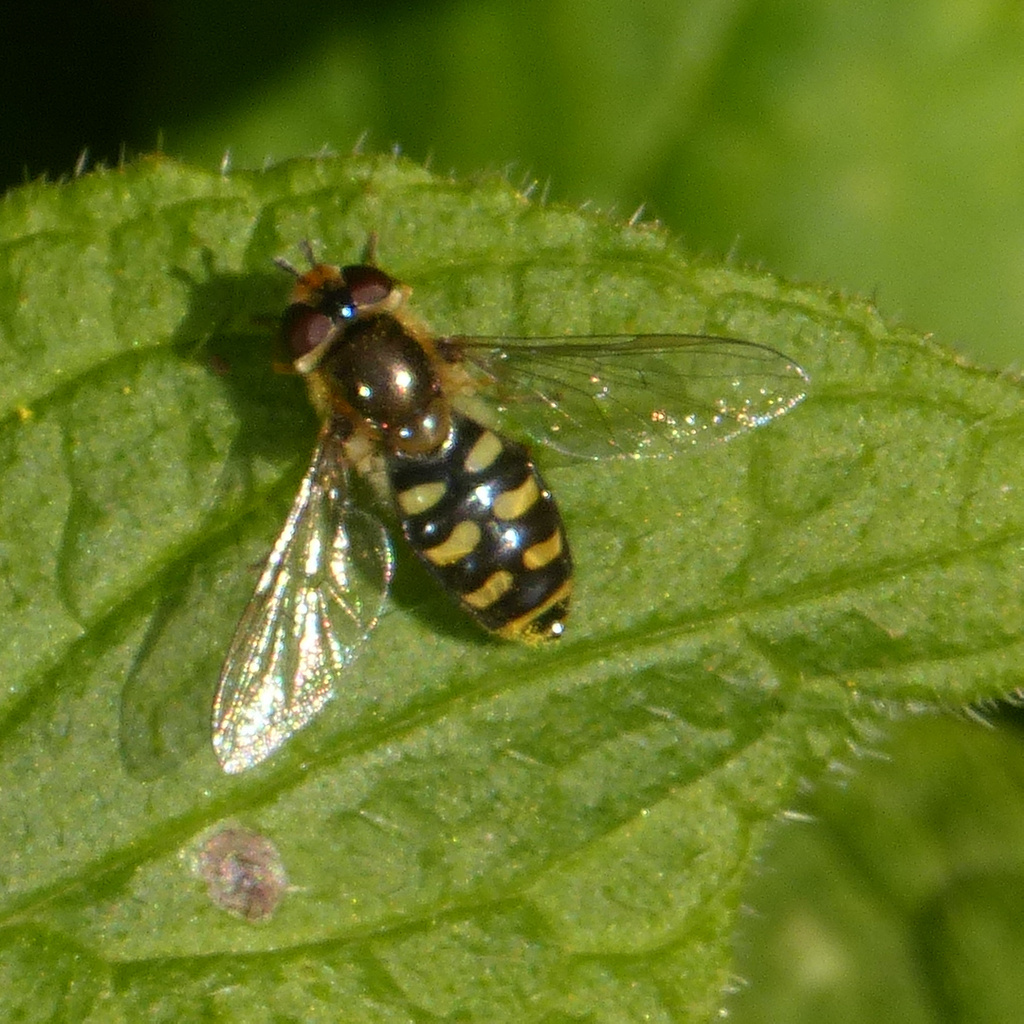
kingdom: Animalia
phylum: Arthropoda
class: Insecta
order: Diptera
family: Syrphidae
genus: Eupeodes
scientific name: Eupeodes luniger
